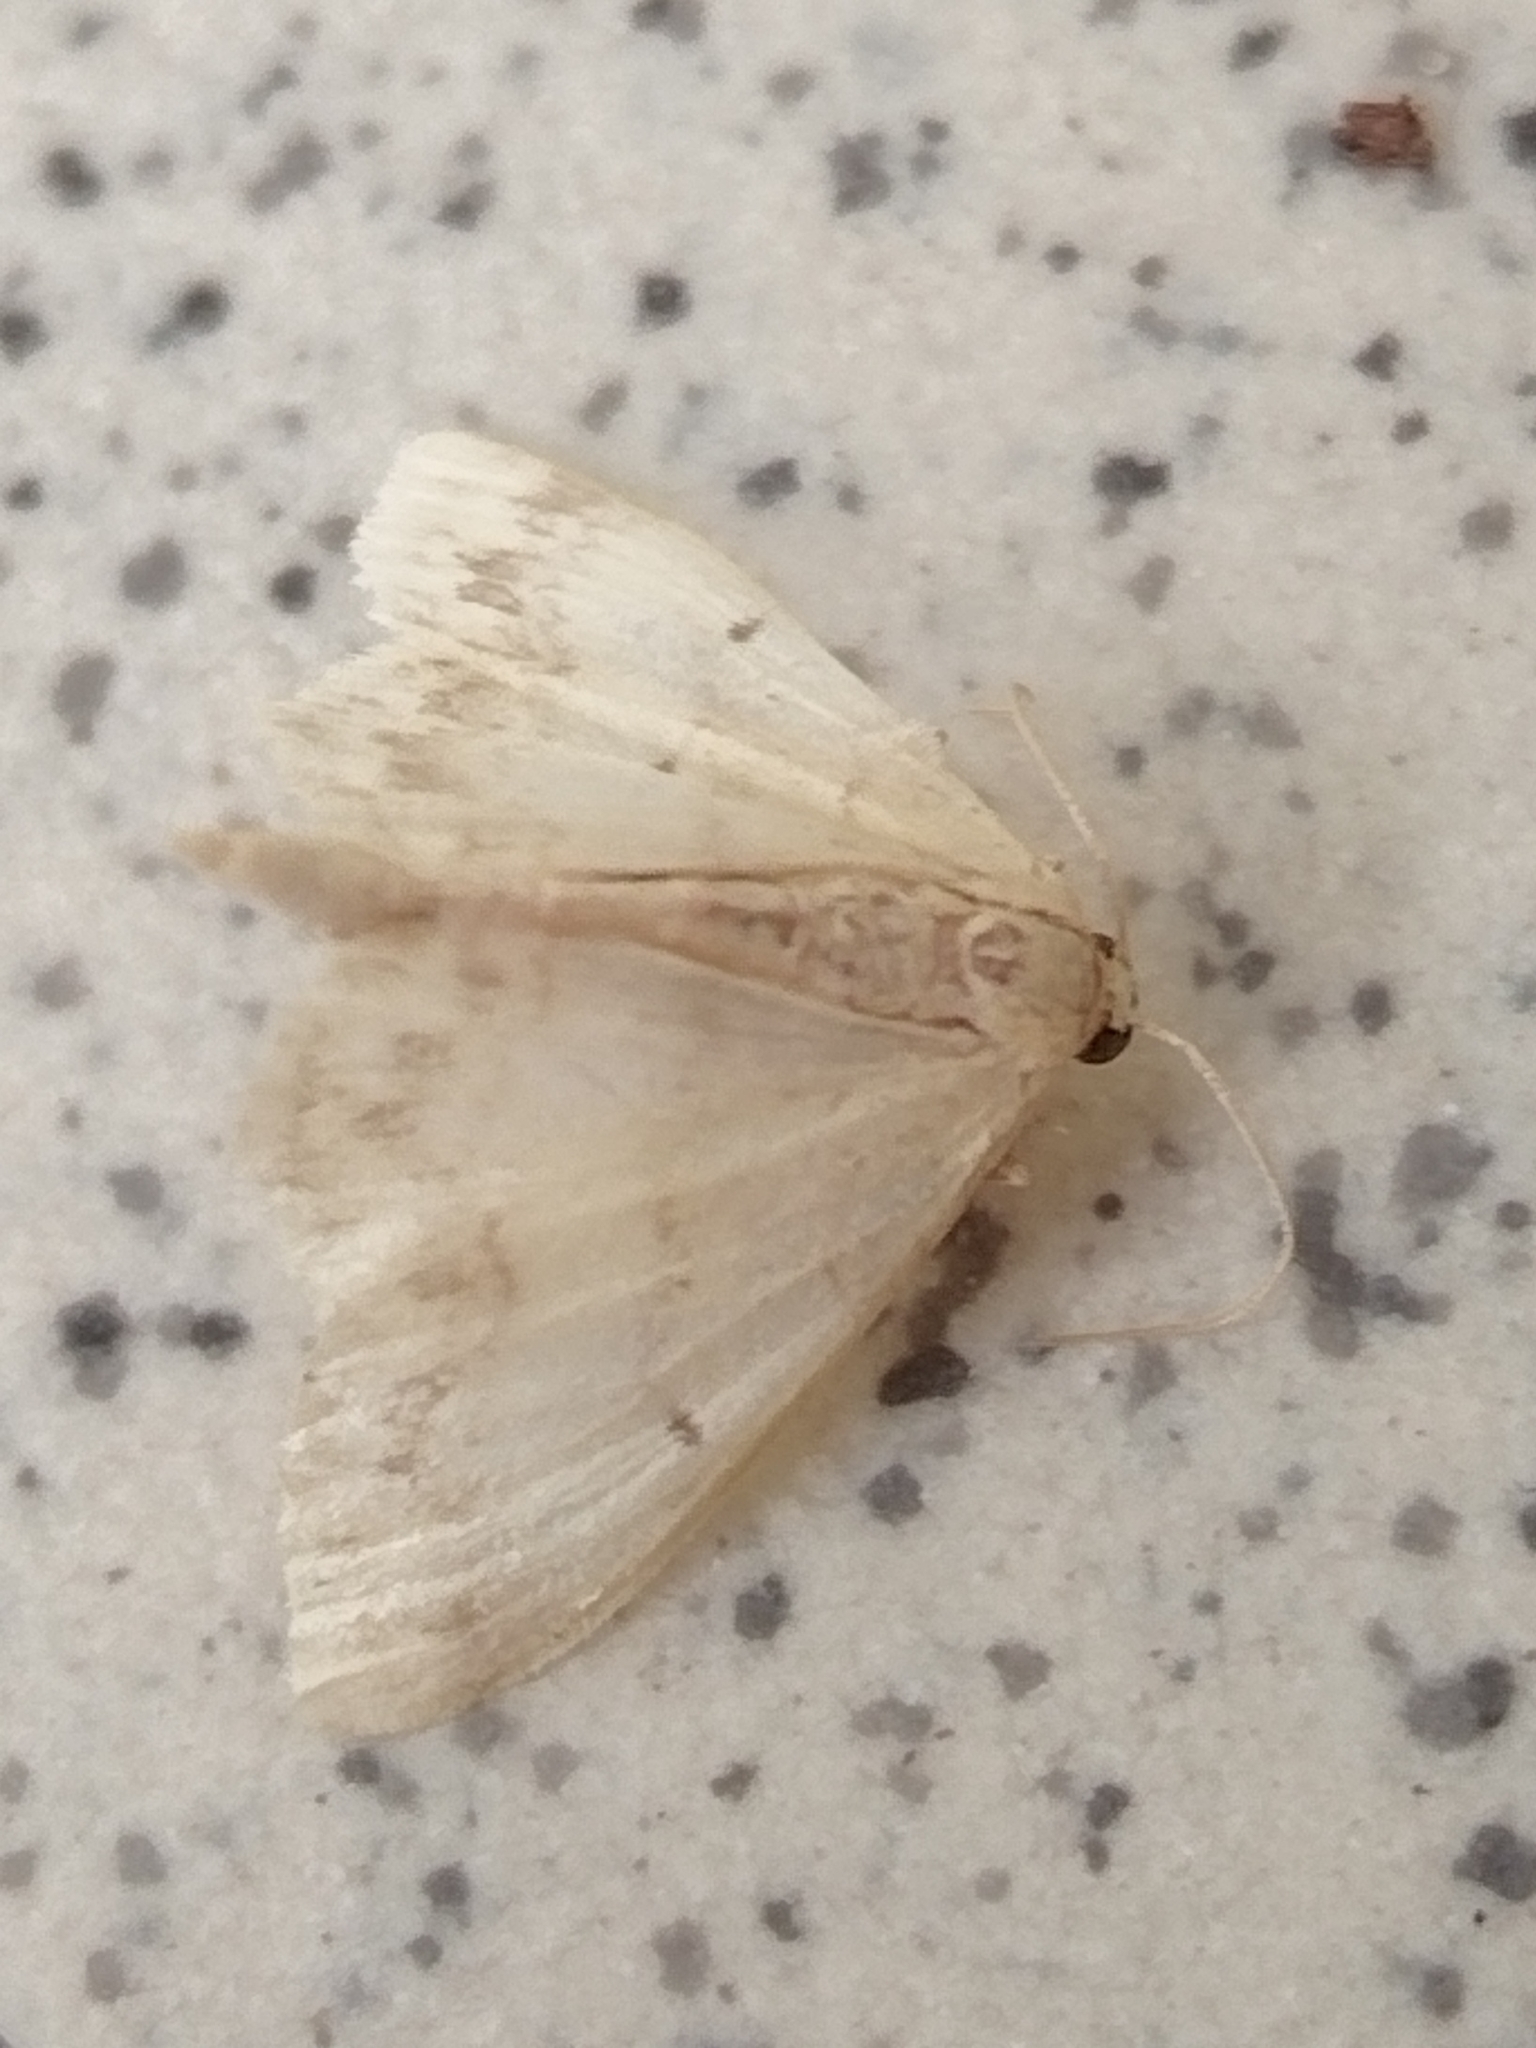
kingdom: Animalia
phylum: Arthropoda
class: Insecta
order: Lepidoptera
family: Geometridae
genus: Idaea
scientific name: Idaea biselata
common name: Small fan-footed wave
